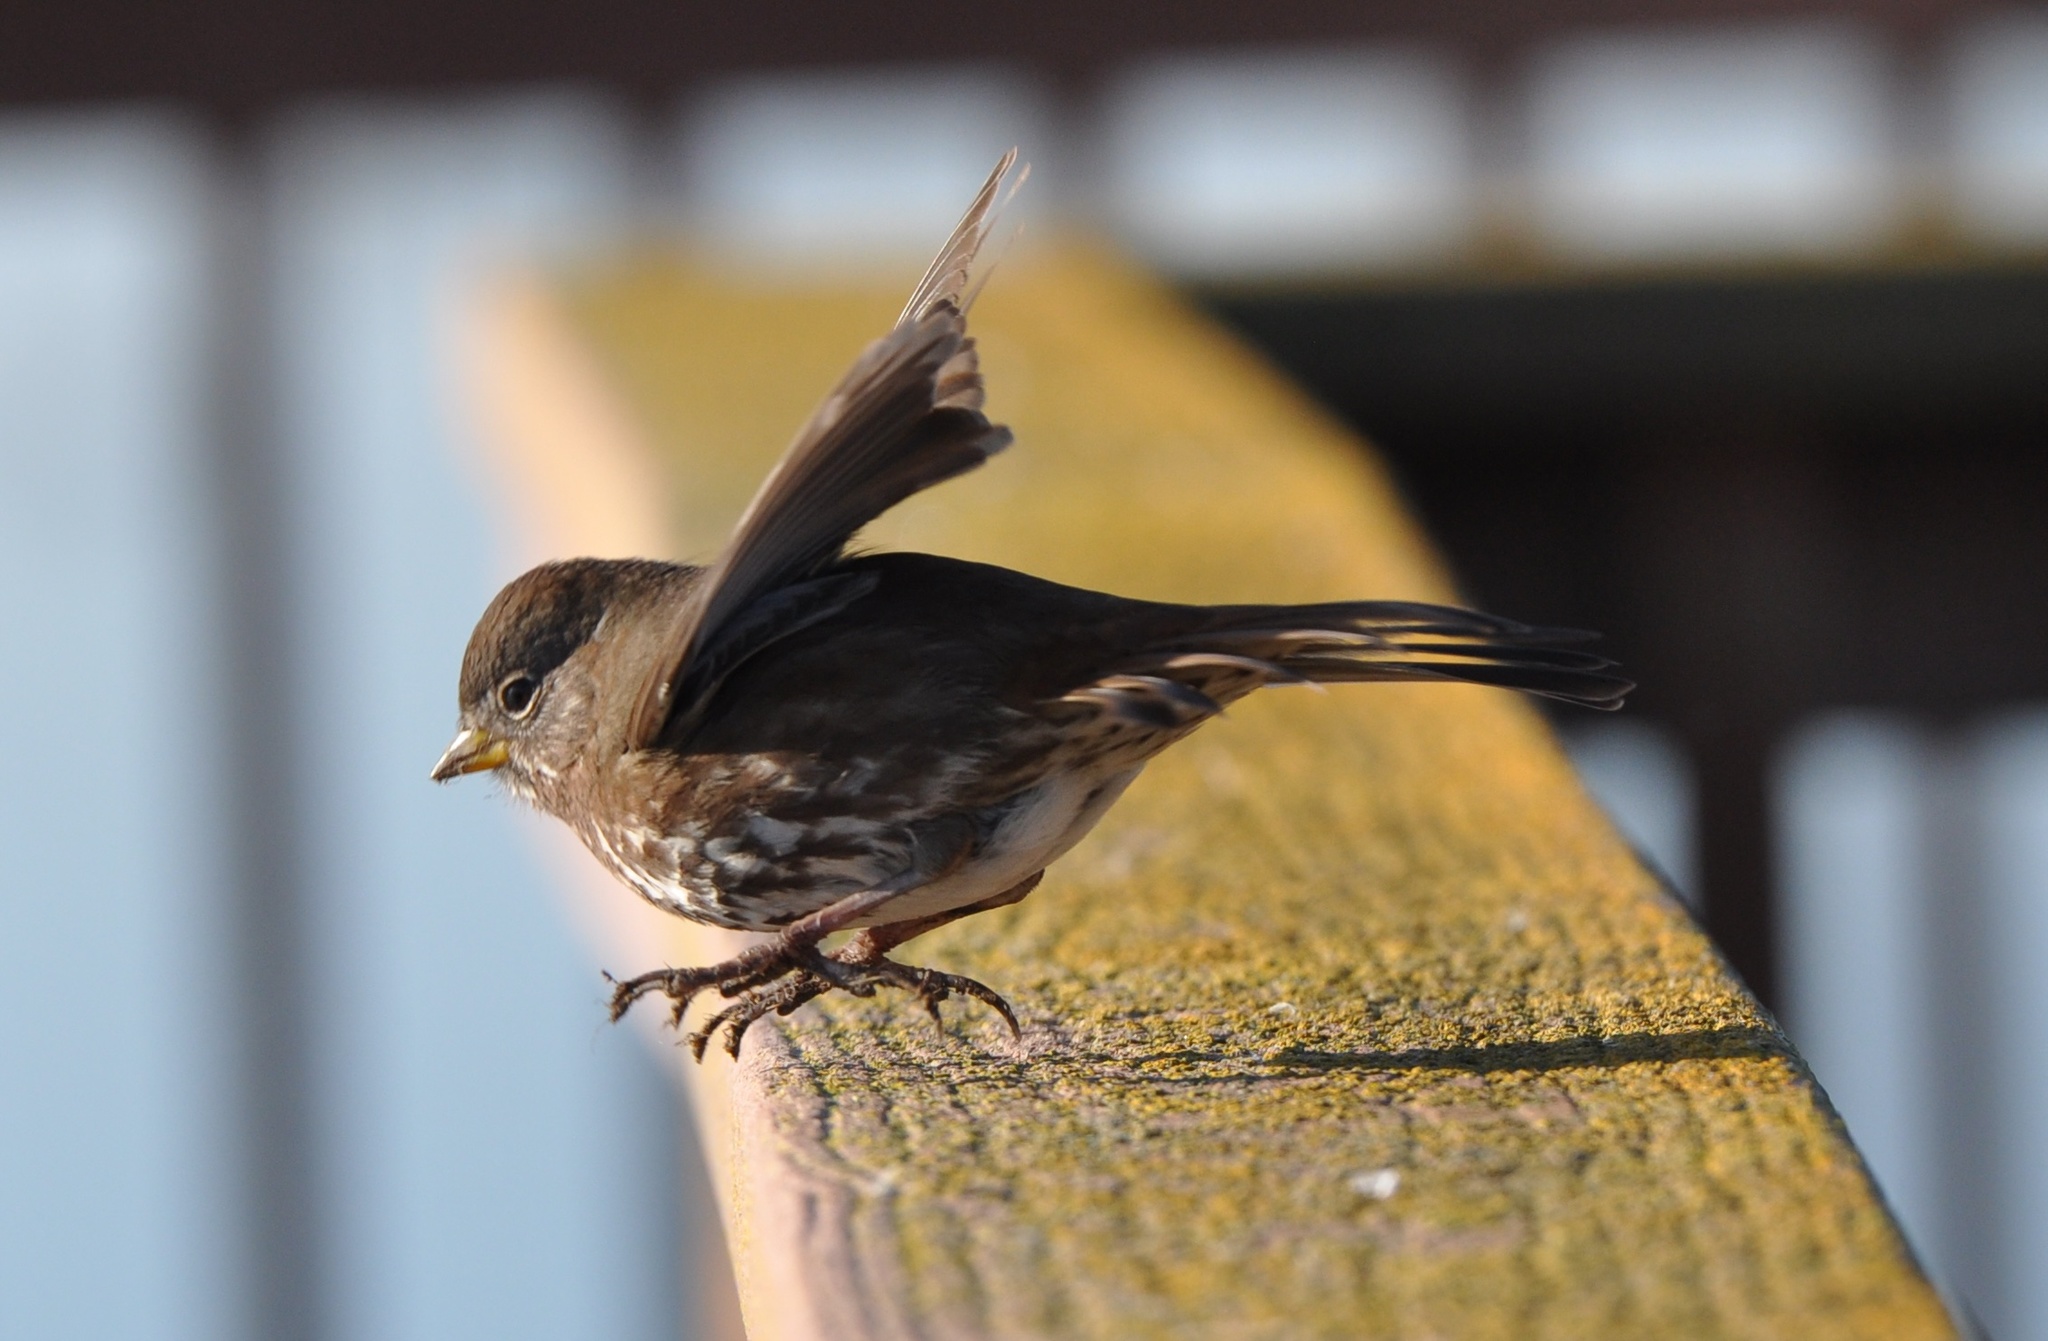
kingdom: Animalia
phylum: Chordata
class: Aves
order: Passeriformes
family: Passerellidae
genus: Passerella
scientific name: Passerella iliaca
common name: Fox sparrow
